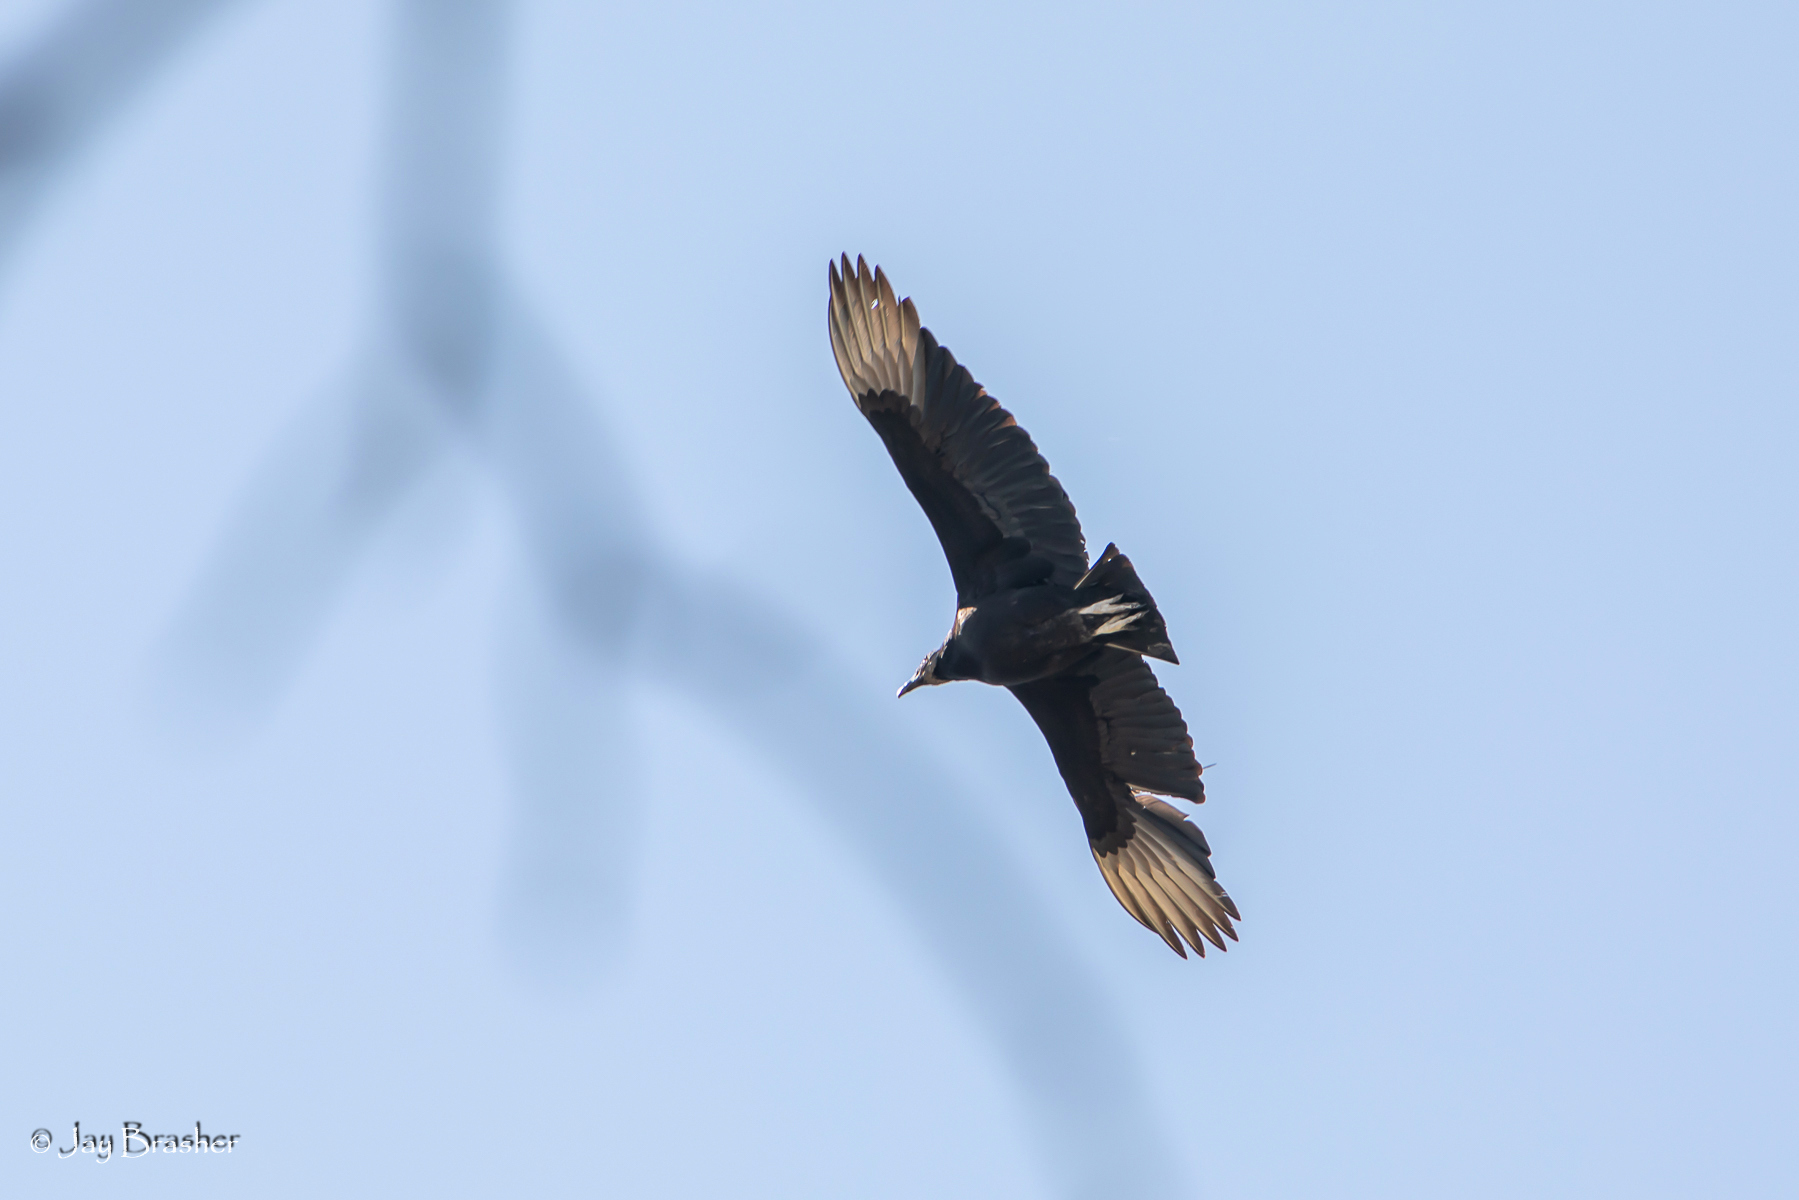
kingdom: Animalia
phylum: Chordata
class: Aves
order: Accipitriformes
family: Cathartidae
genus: Coragyps
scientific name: Coragyps atratus
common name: Black vulture
